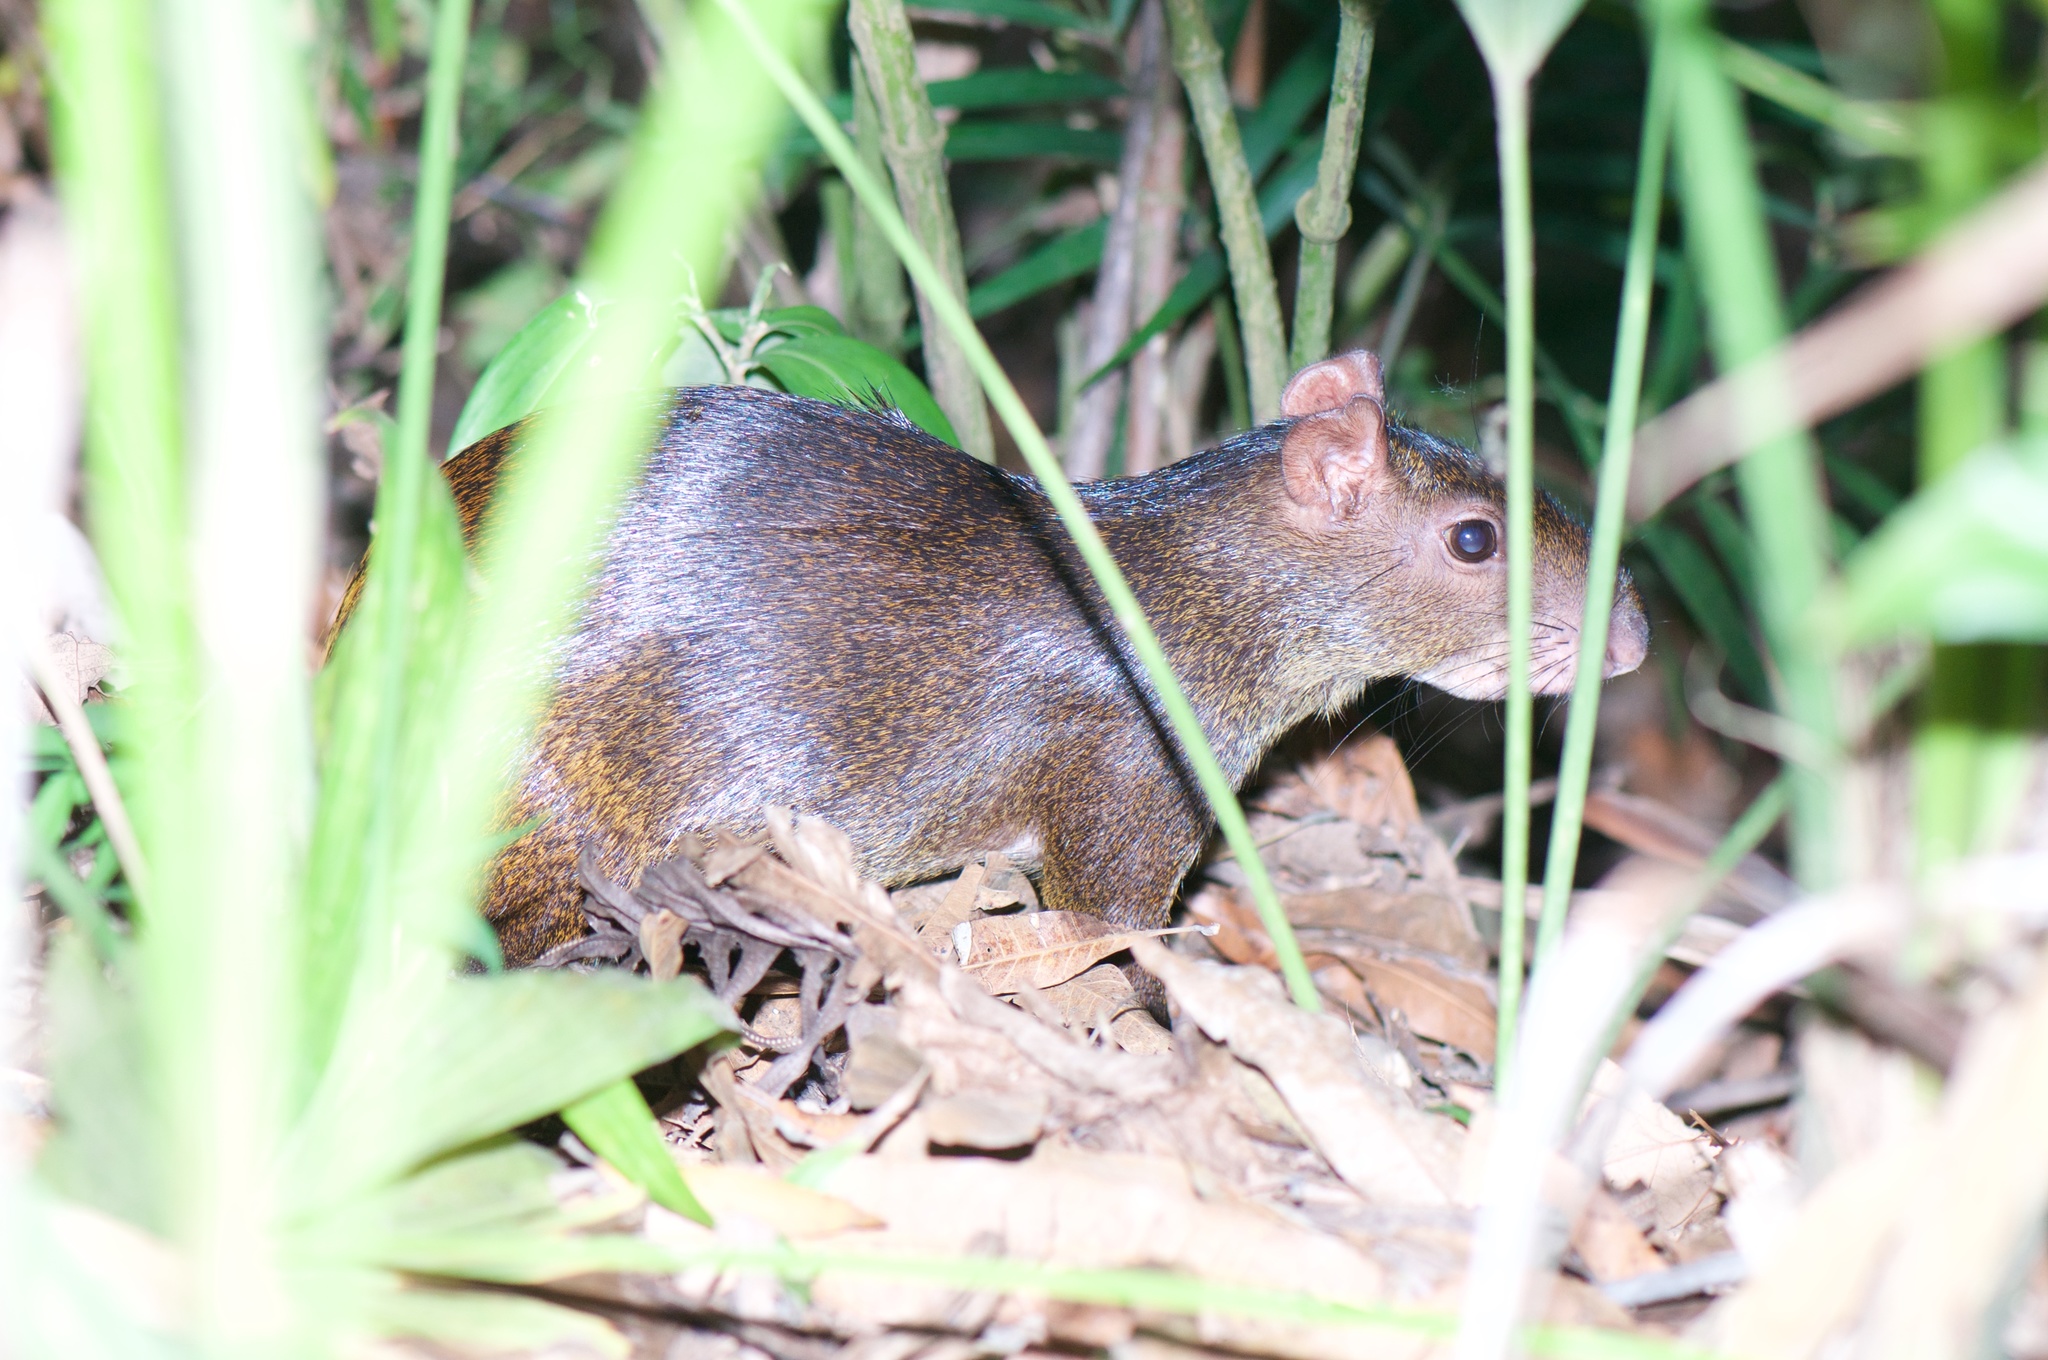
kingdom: Animalia
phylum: Chordata
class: Mammalia
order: Rodentia
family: Dasyproctidae
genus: Dasyprocta
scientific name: Dasyprocta punctata
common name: Central american agouti
